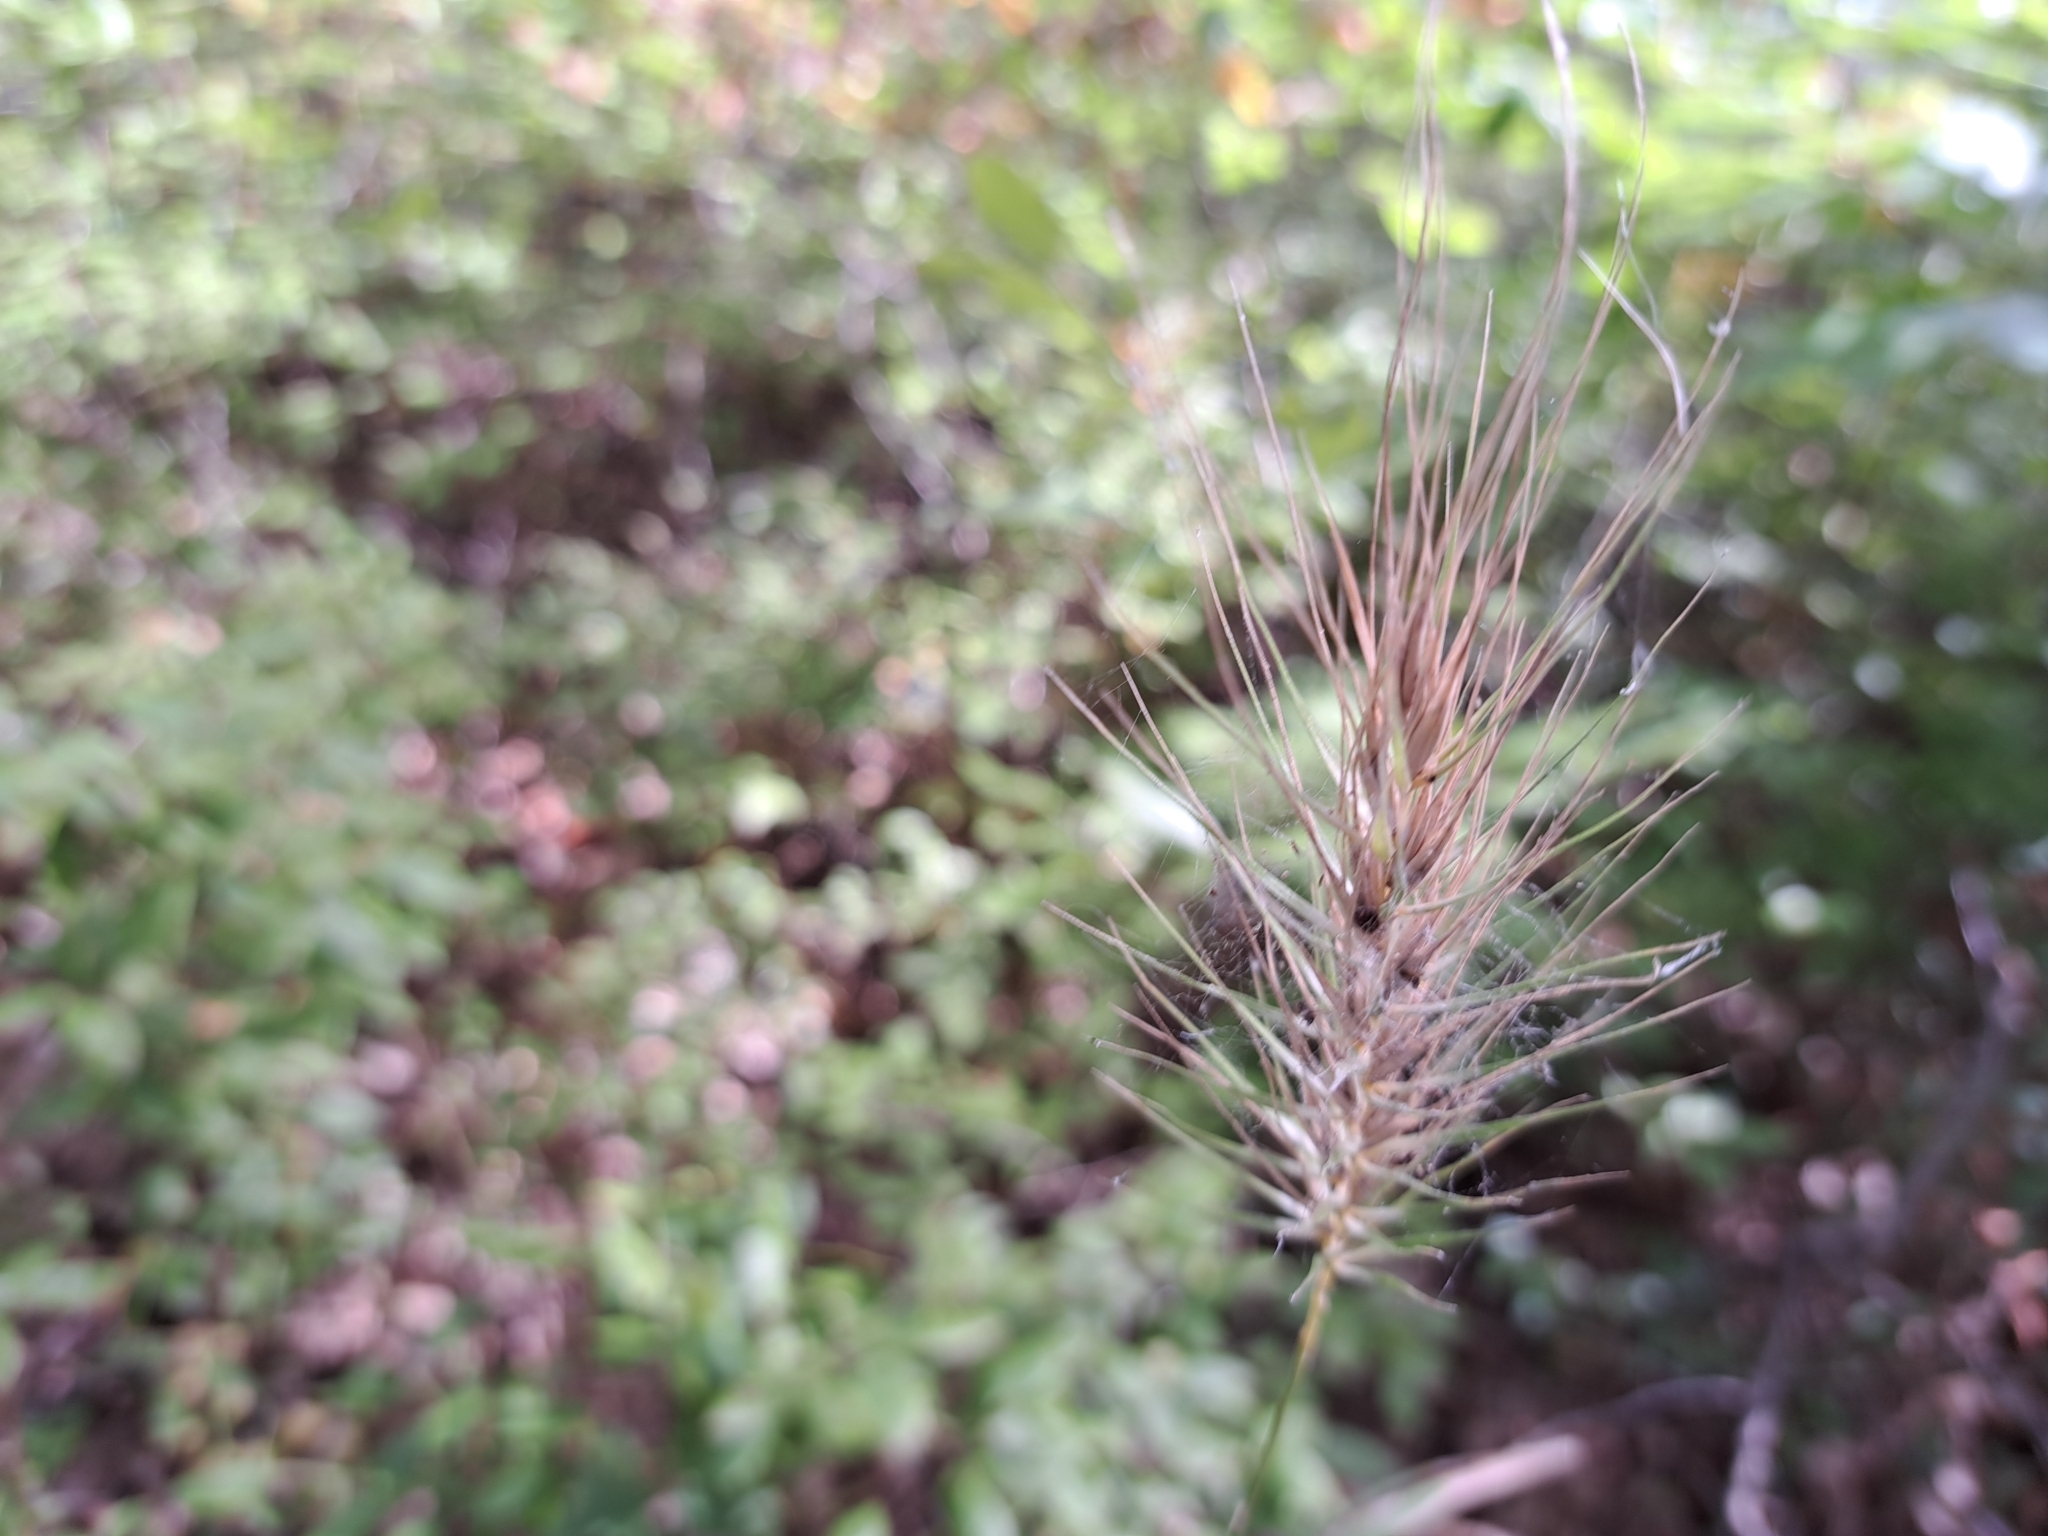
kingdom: Plantae
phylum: Tracheophyta
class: Liliopsida
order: Poales
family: Poaceae
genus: Elymus
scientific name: Elymus macgregorii
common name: Early wild rye
